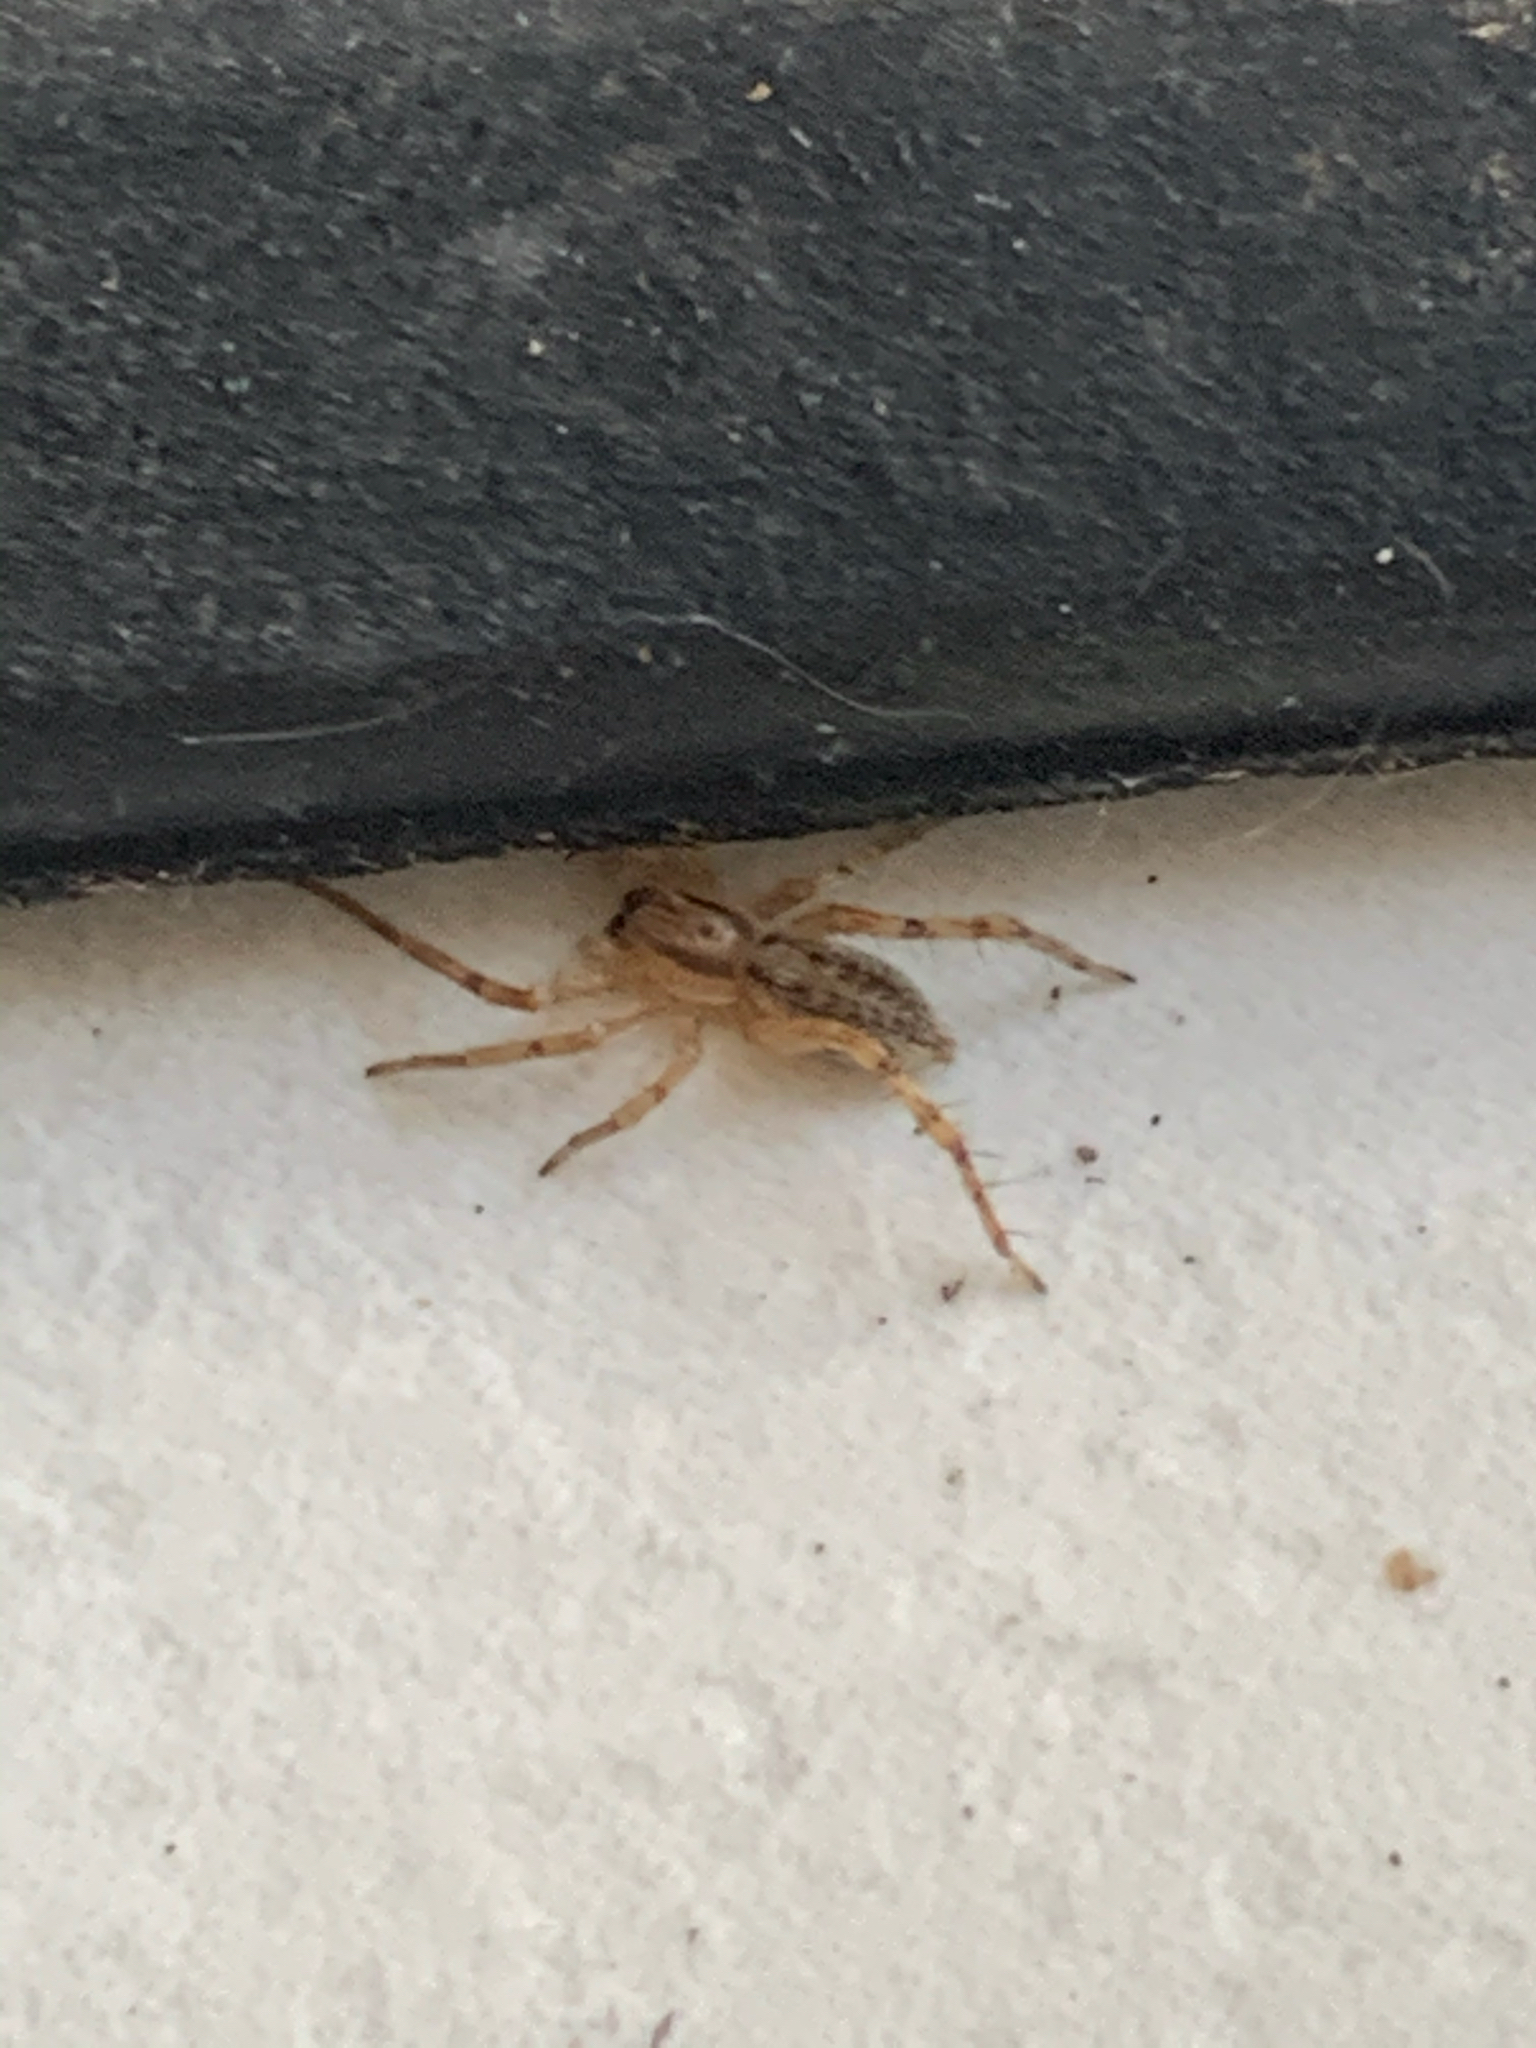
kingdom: Animalia
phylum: Arthropoda
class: Arachnida
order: Araneae
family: Anyphaenidae
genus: Hibana
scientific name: Hibana gracilis
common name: Garden ghost spider
